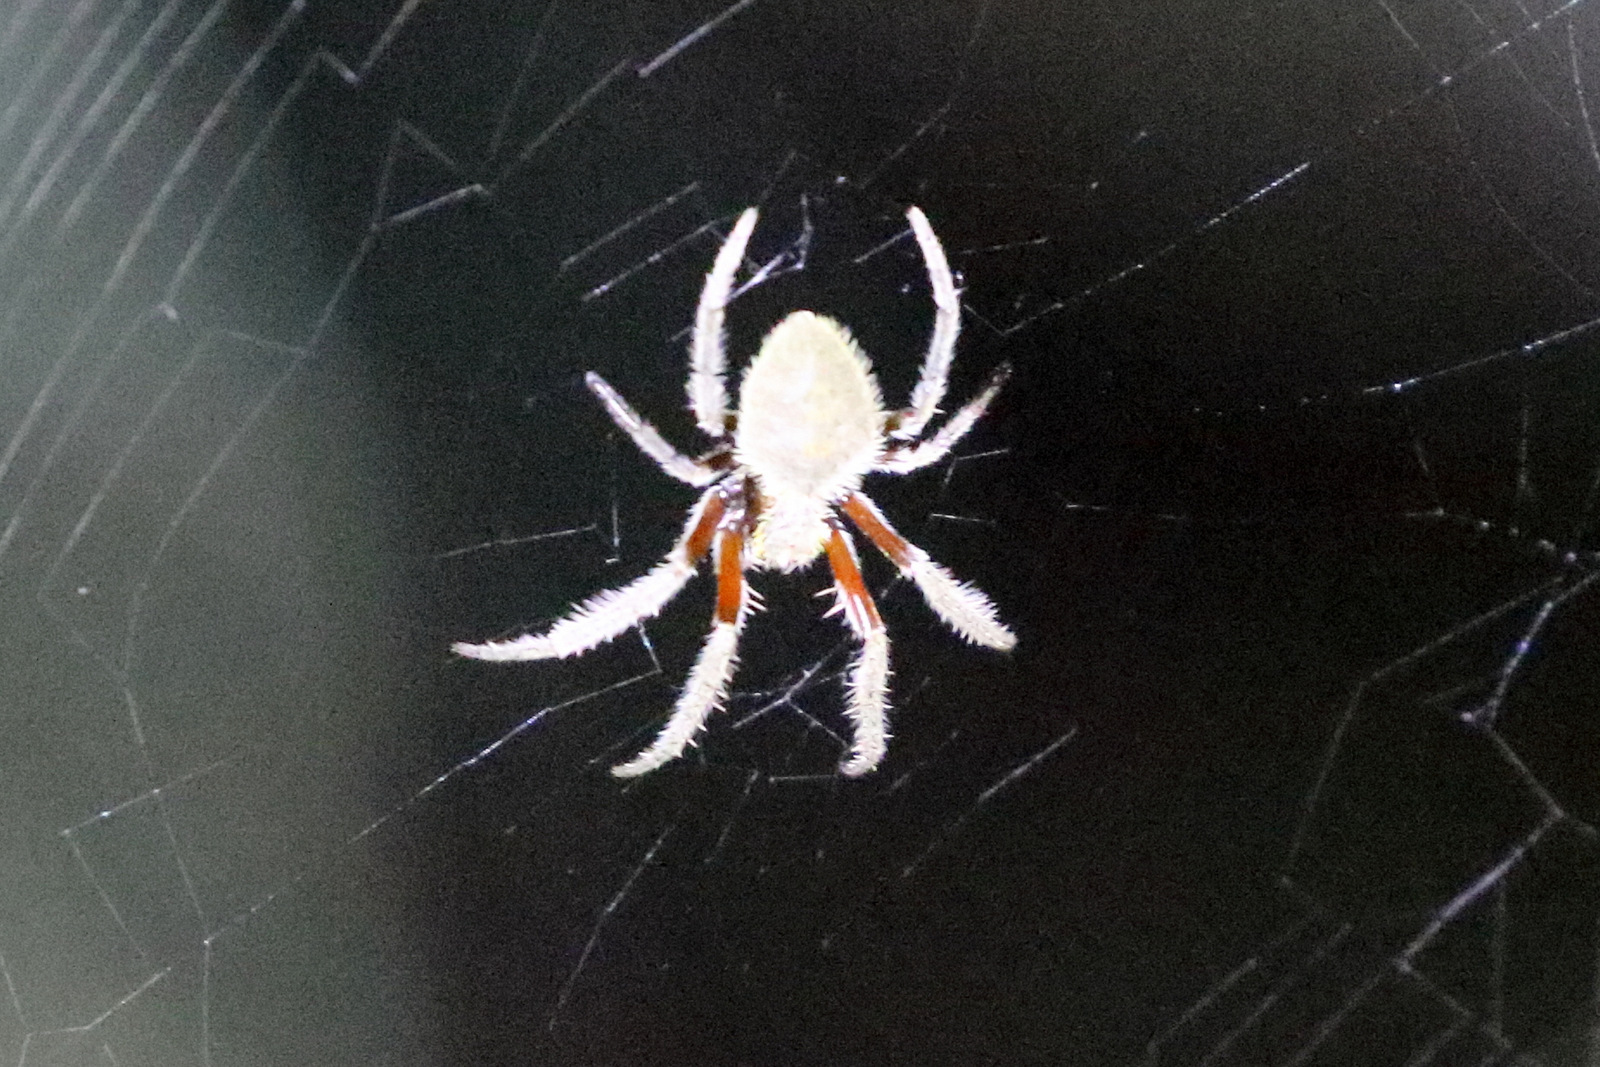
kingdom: Animalia
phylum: Arthropoda
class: Arachnida
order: Araneae
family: Araneidae
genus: Hortophora
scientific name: Hortophora transmarina
